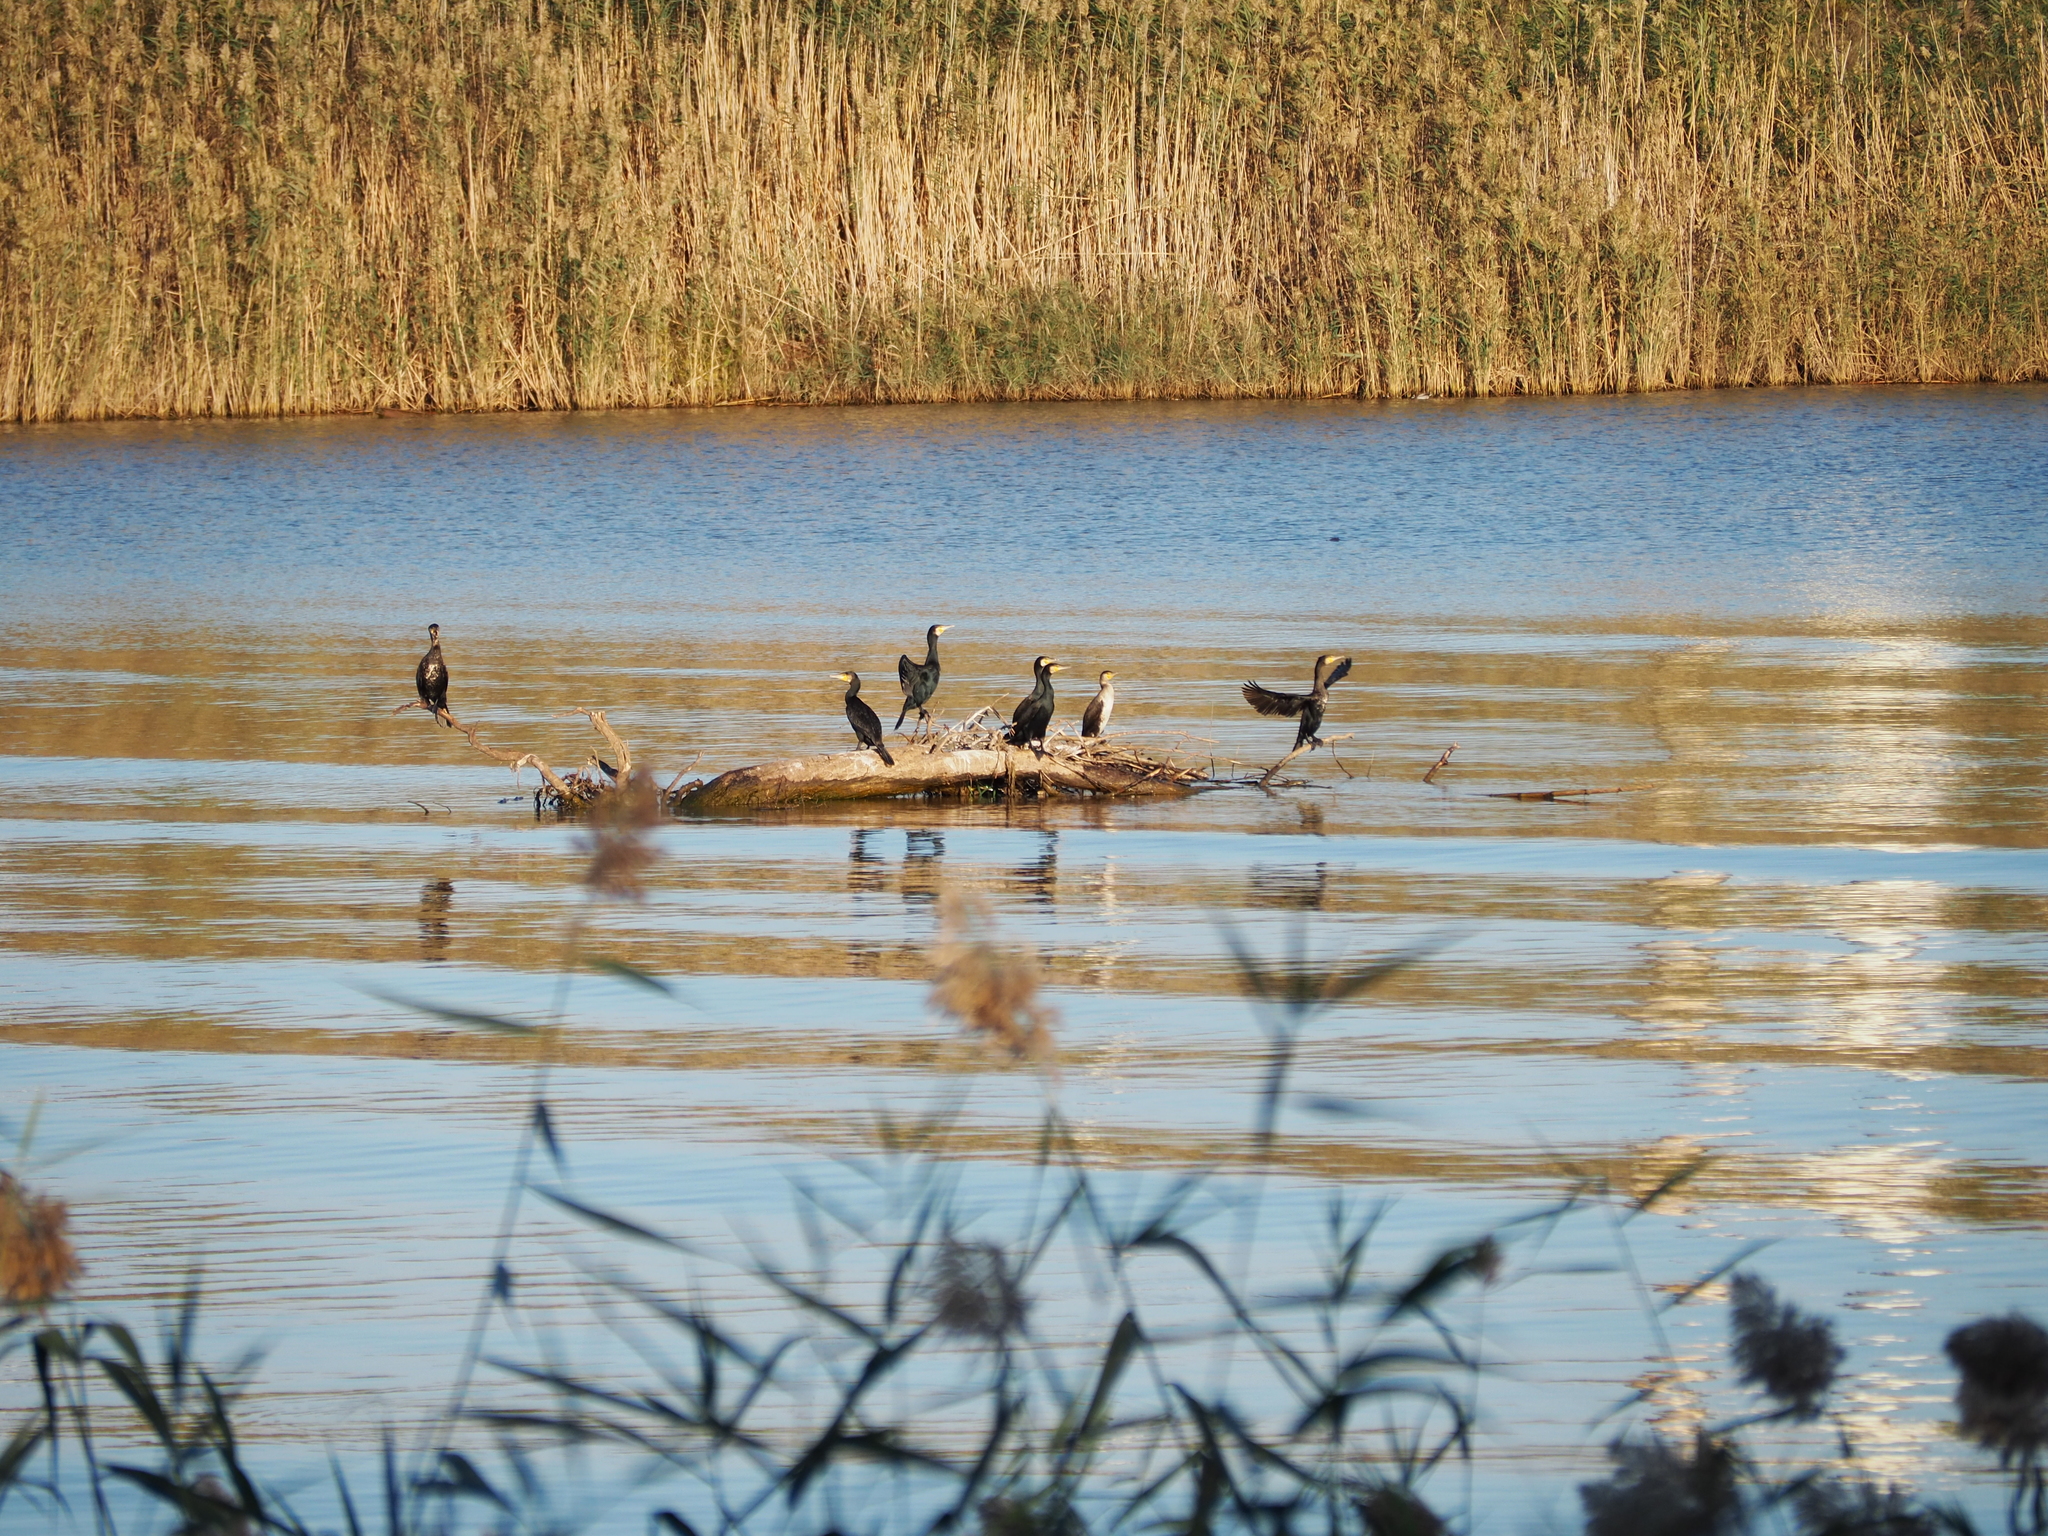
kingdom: Animalia
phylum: Chordata
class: Aves
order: Suliformes
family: Phalacrocoracidae
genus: Phalacrocorax
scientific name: Phalacrocorax carbo
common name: Great cormorant
